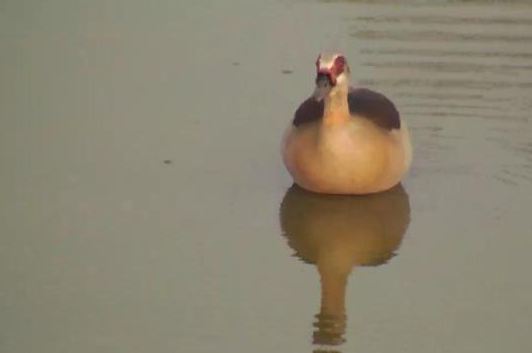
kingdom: Animalia
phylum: Chordata
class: Aves
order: Anseriformes
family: Anatidae
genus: Alopochen
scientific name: Alopochen aegyptiaca
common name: Egyptian goose
